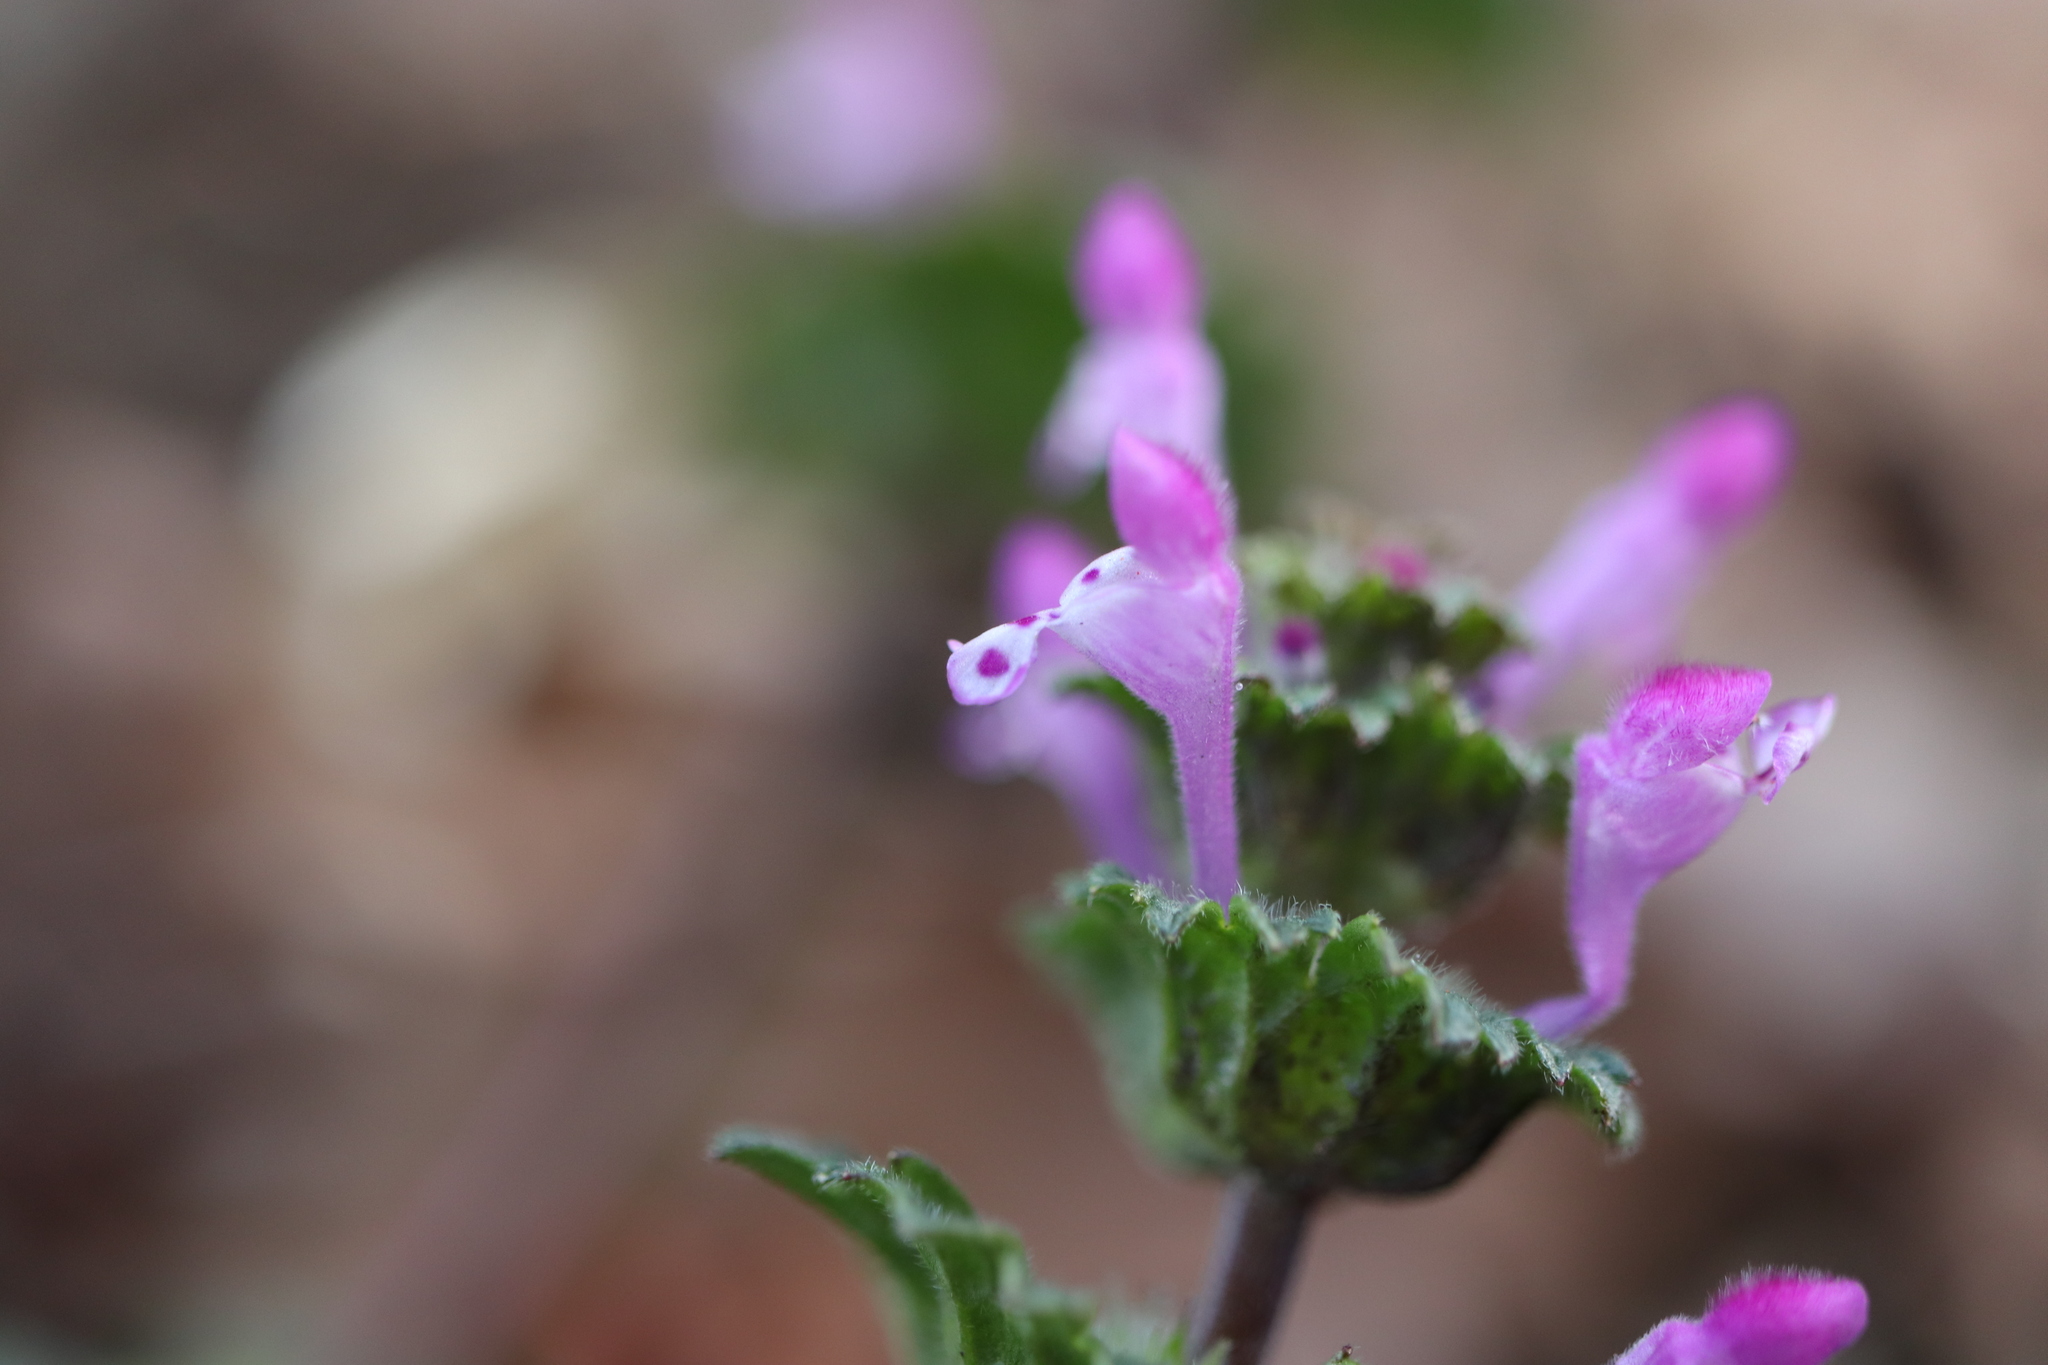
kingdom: Plantae
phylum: Tracheophyta
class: Magnoliopsida
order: Lamiales
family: Lamiaceae
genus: Lamium
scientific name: Lamium amplexicaule
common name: Henbit dead-nettle
